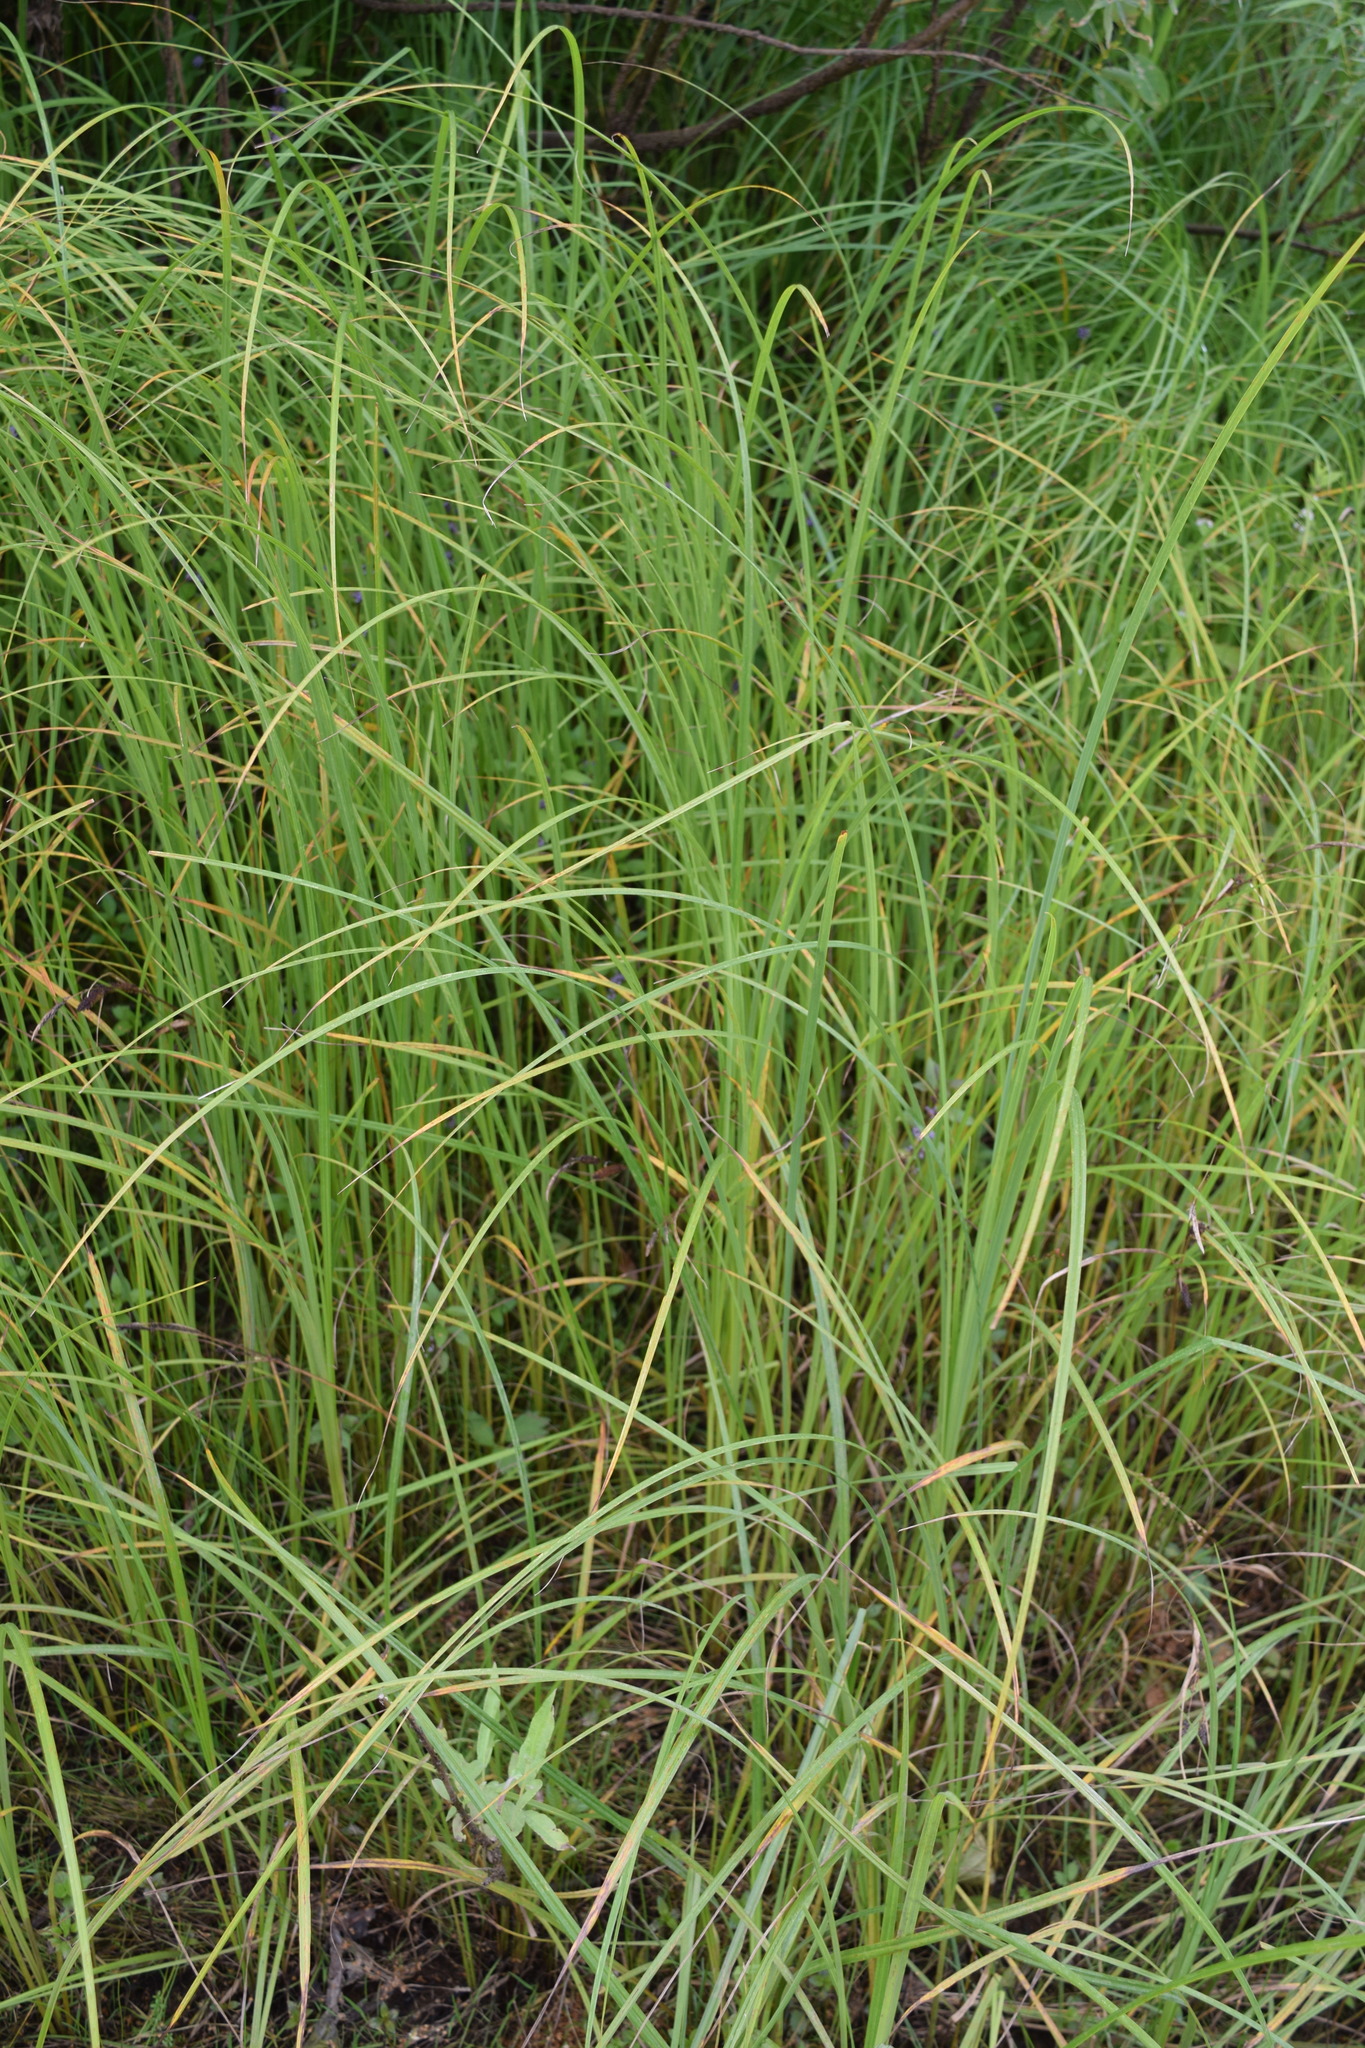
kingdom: Plantae
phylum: Tracheophyta
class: Liliopsida
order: Poales
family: Cyperaceae
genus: Carex
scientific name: Carex acuta
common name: Slender tufted-sedge
